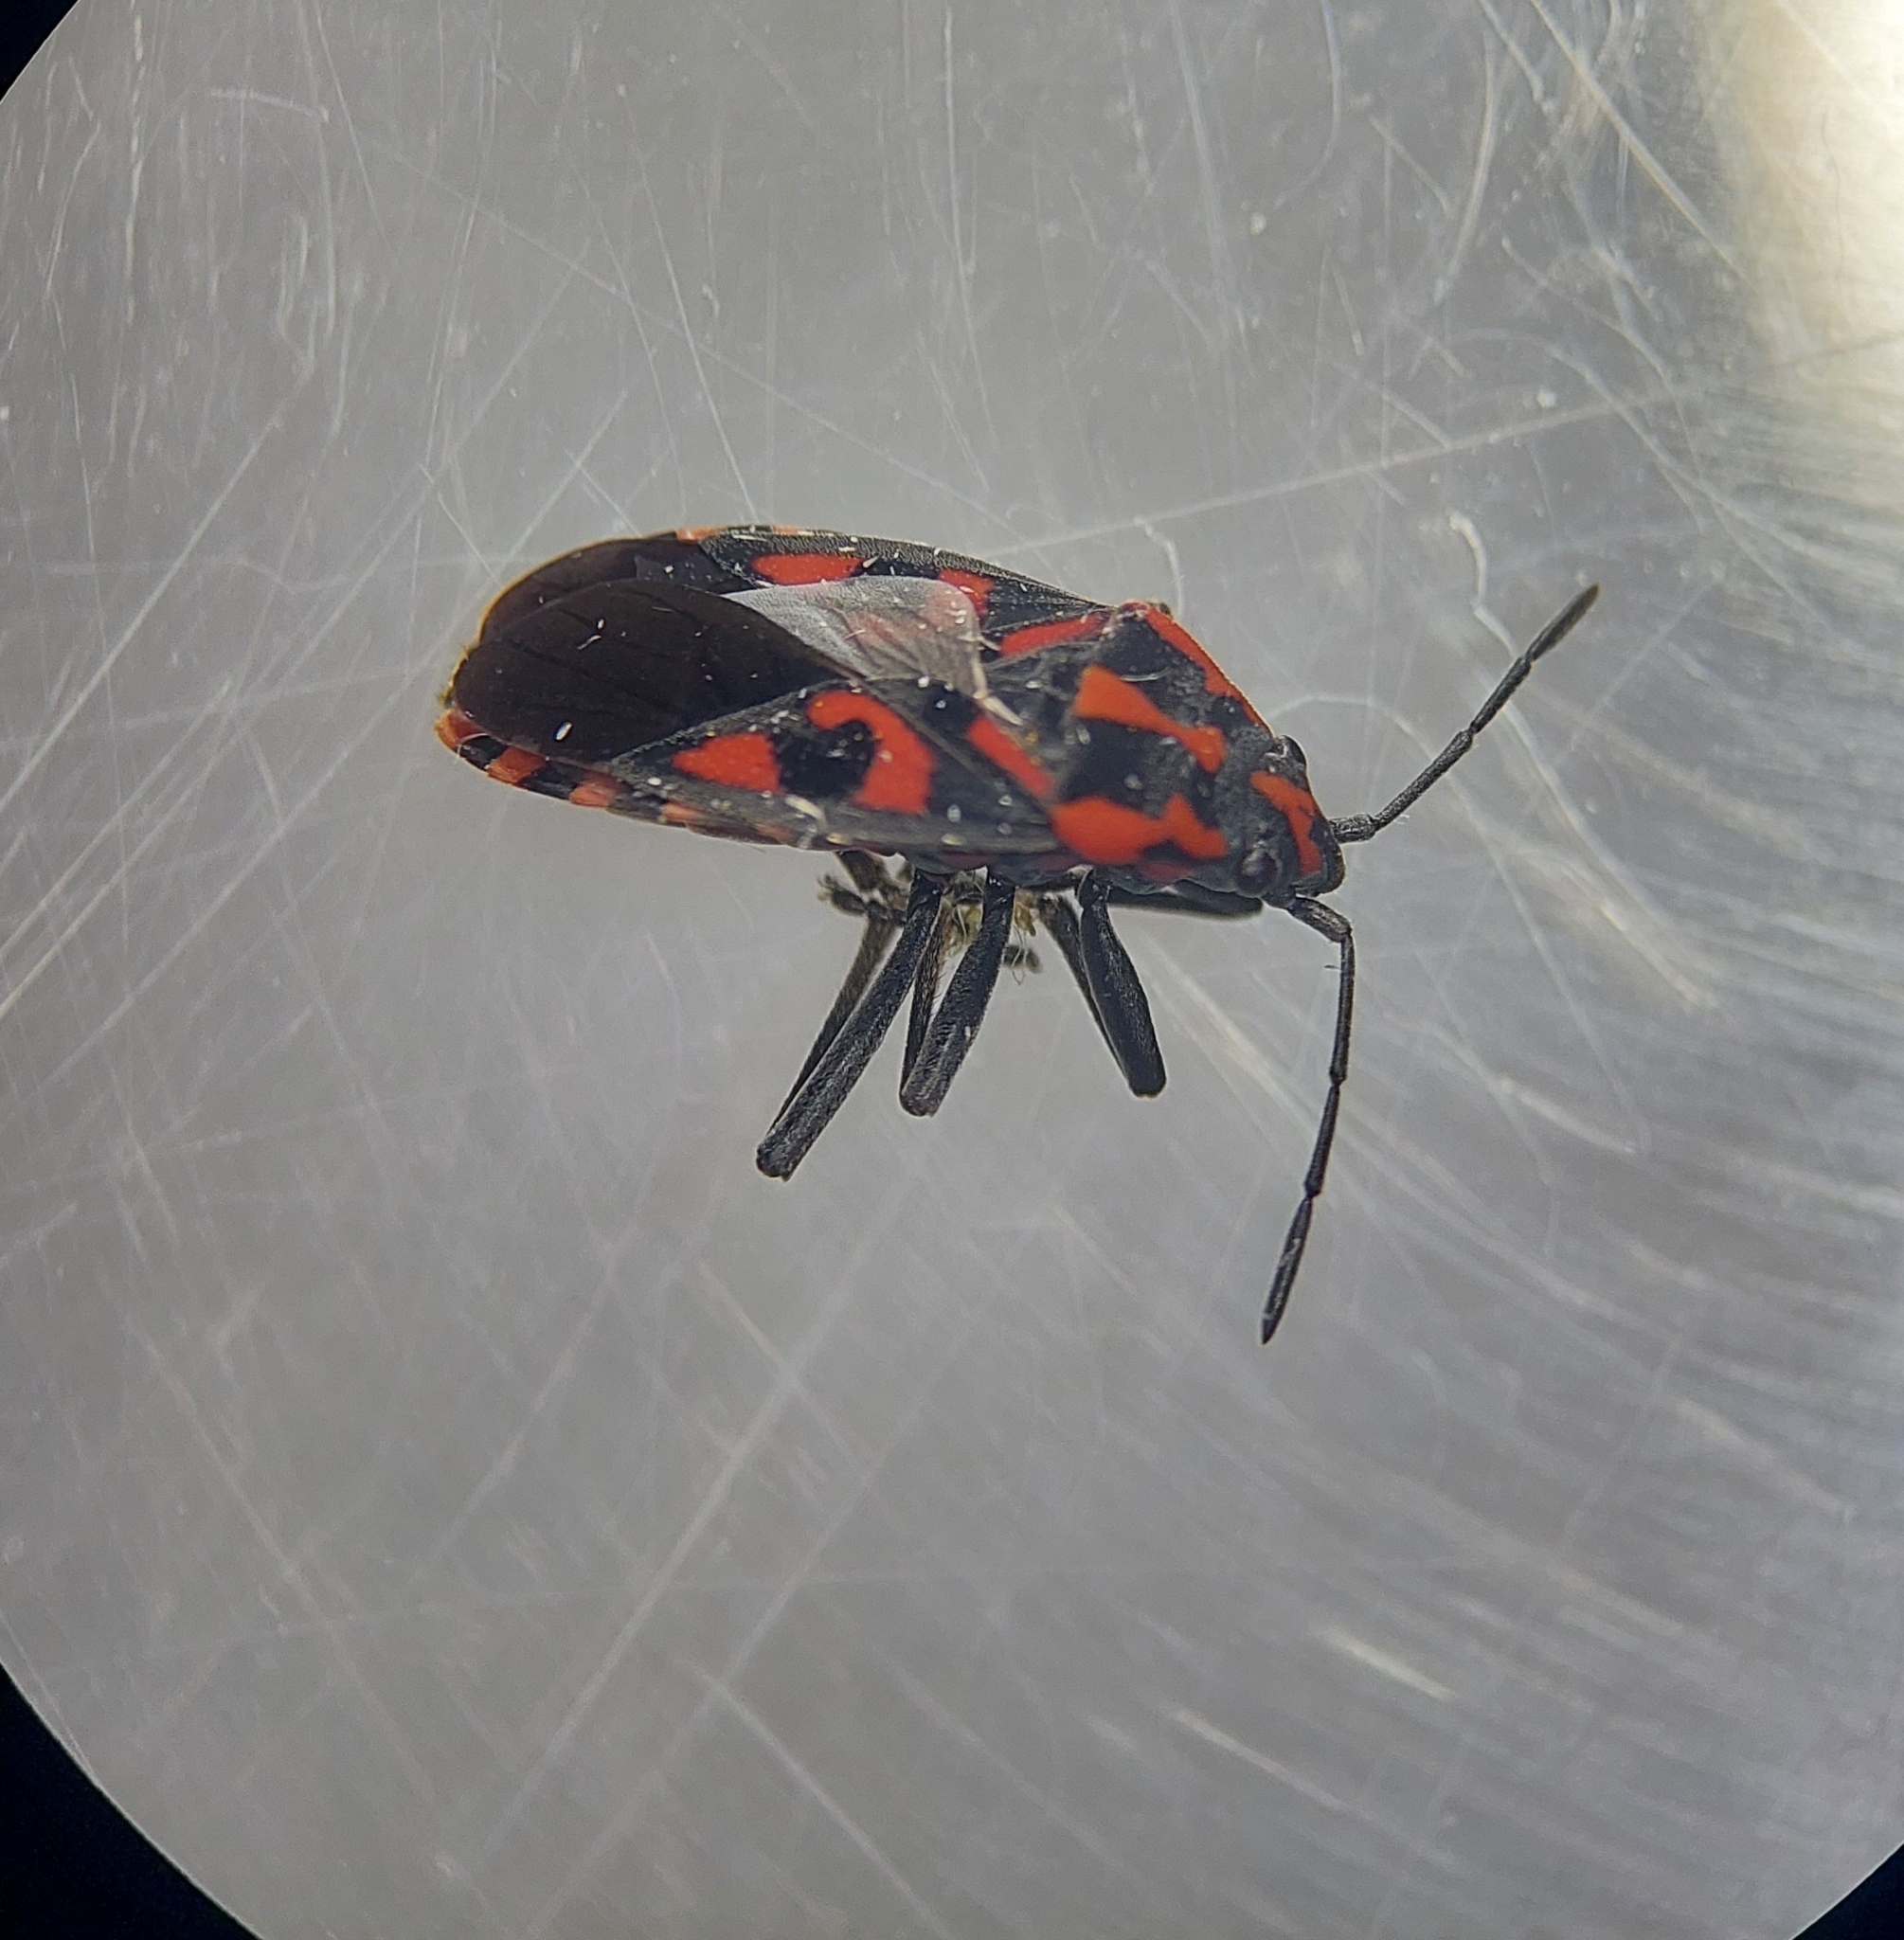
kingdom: Animalia
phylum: Arthropoda
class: Insecta
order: Hemiptera
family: Lygaeidae
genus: Spilostethus
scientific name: Spilostethus saxatilis
